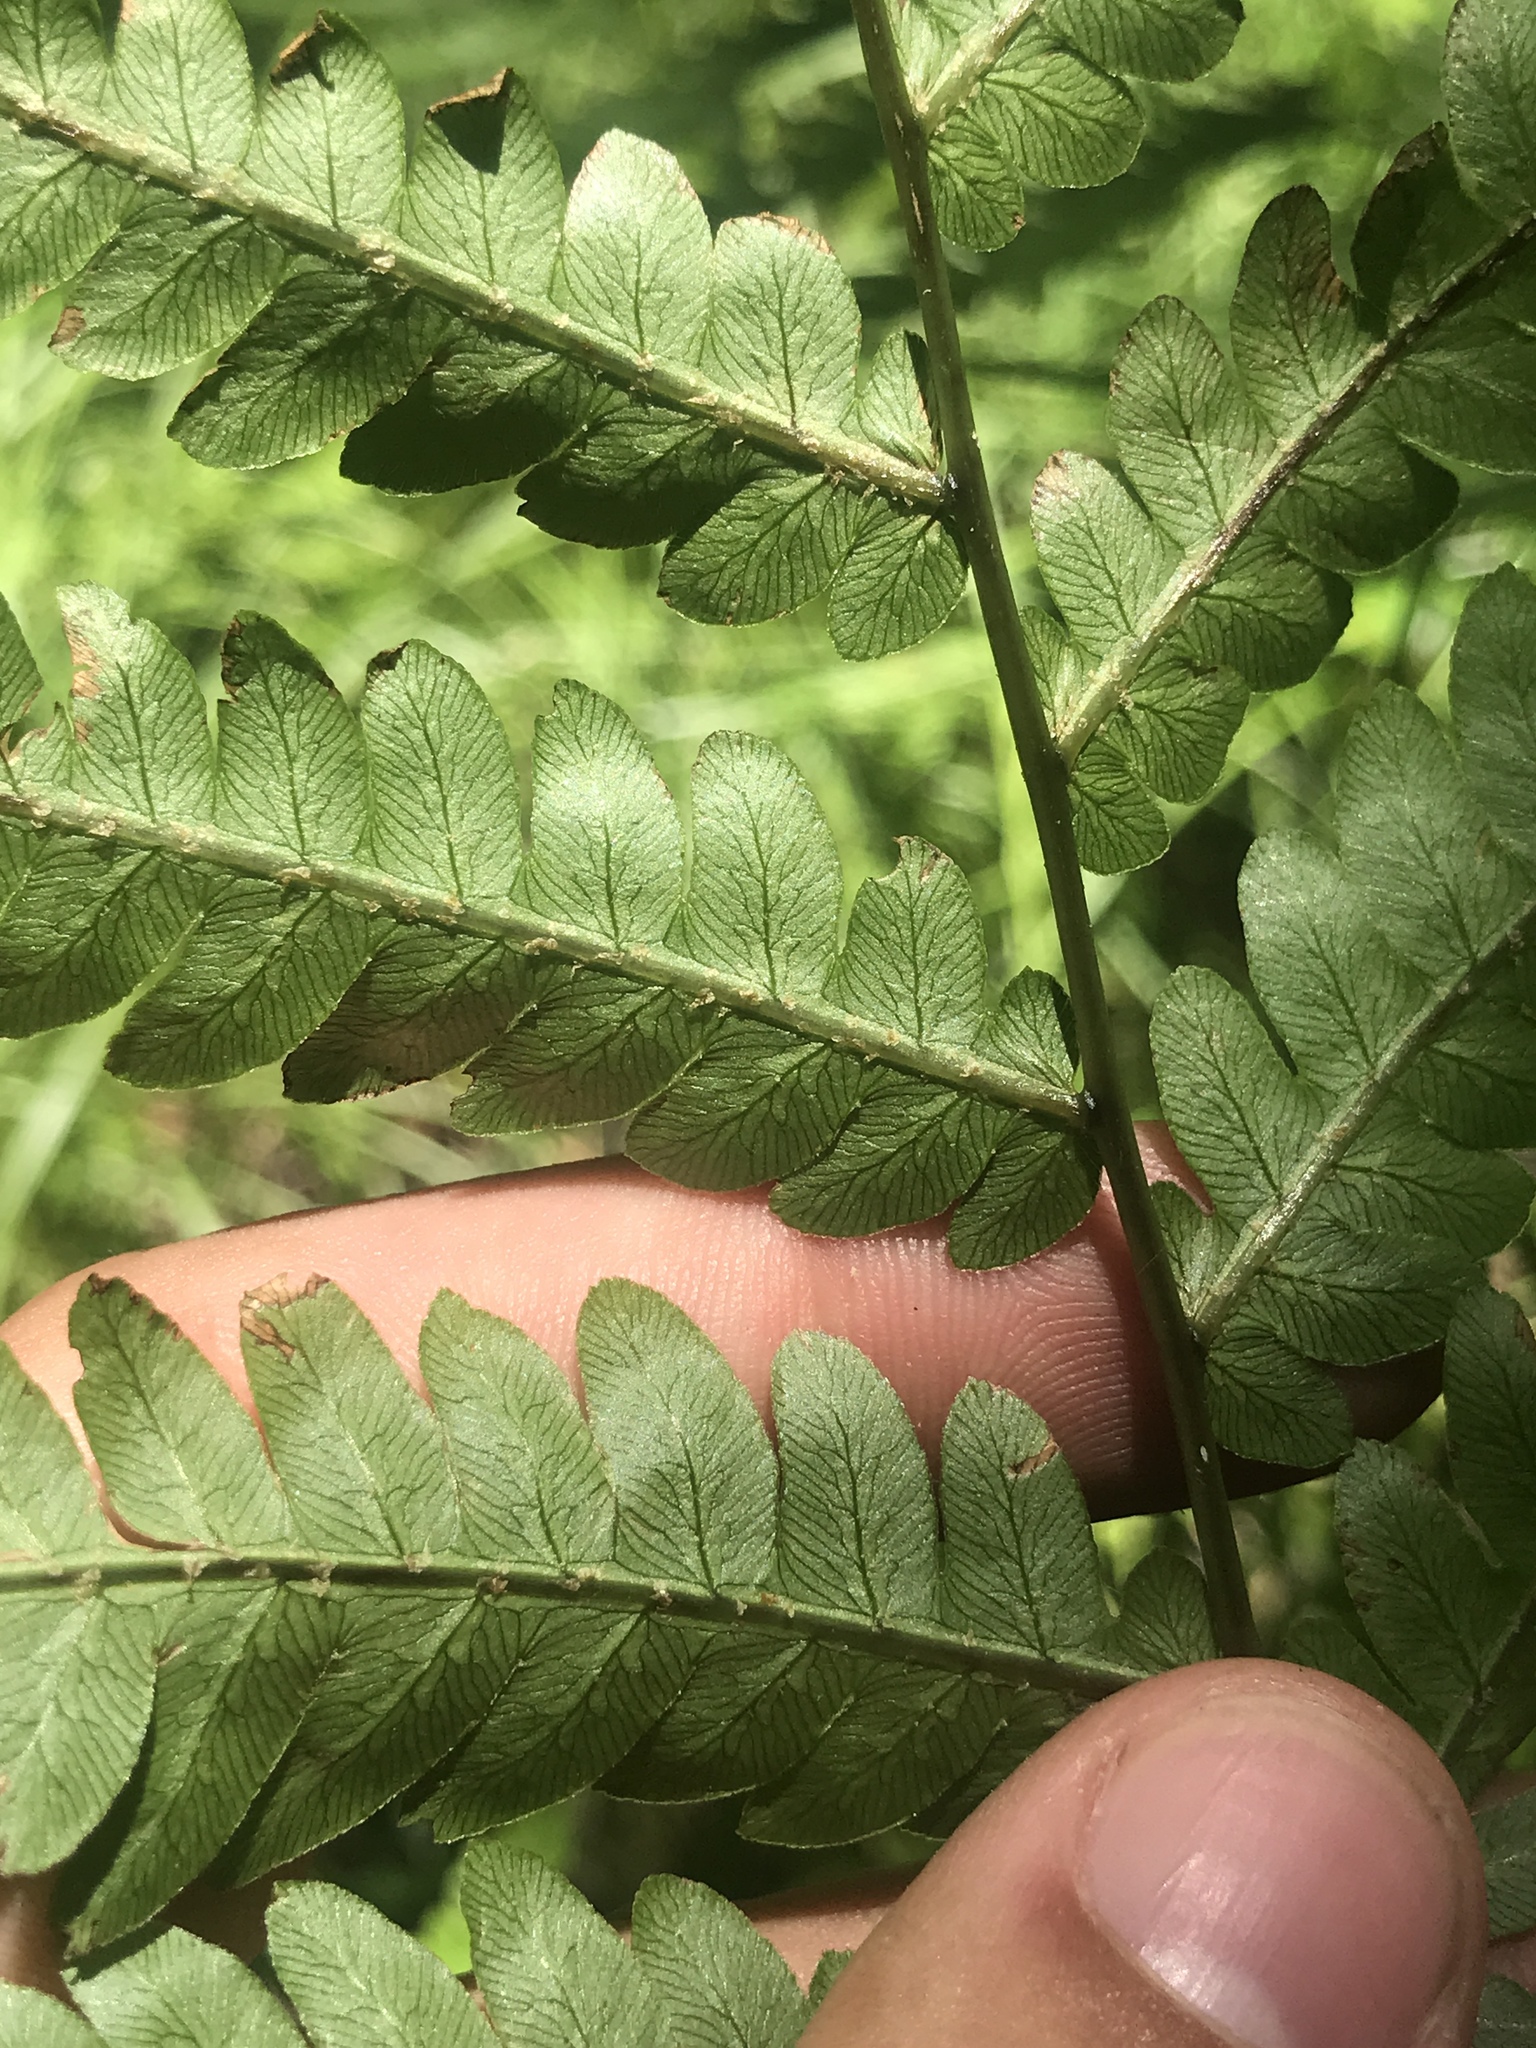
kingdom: Plantae
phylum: Tracheophyta
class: Polypodiopsida
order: Polypodiales
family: Blechnaceae
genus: Anchistea
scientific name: Anchistea virginica
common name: Virginia chain fern
